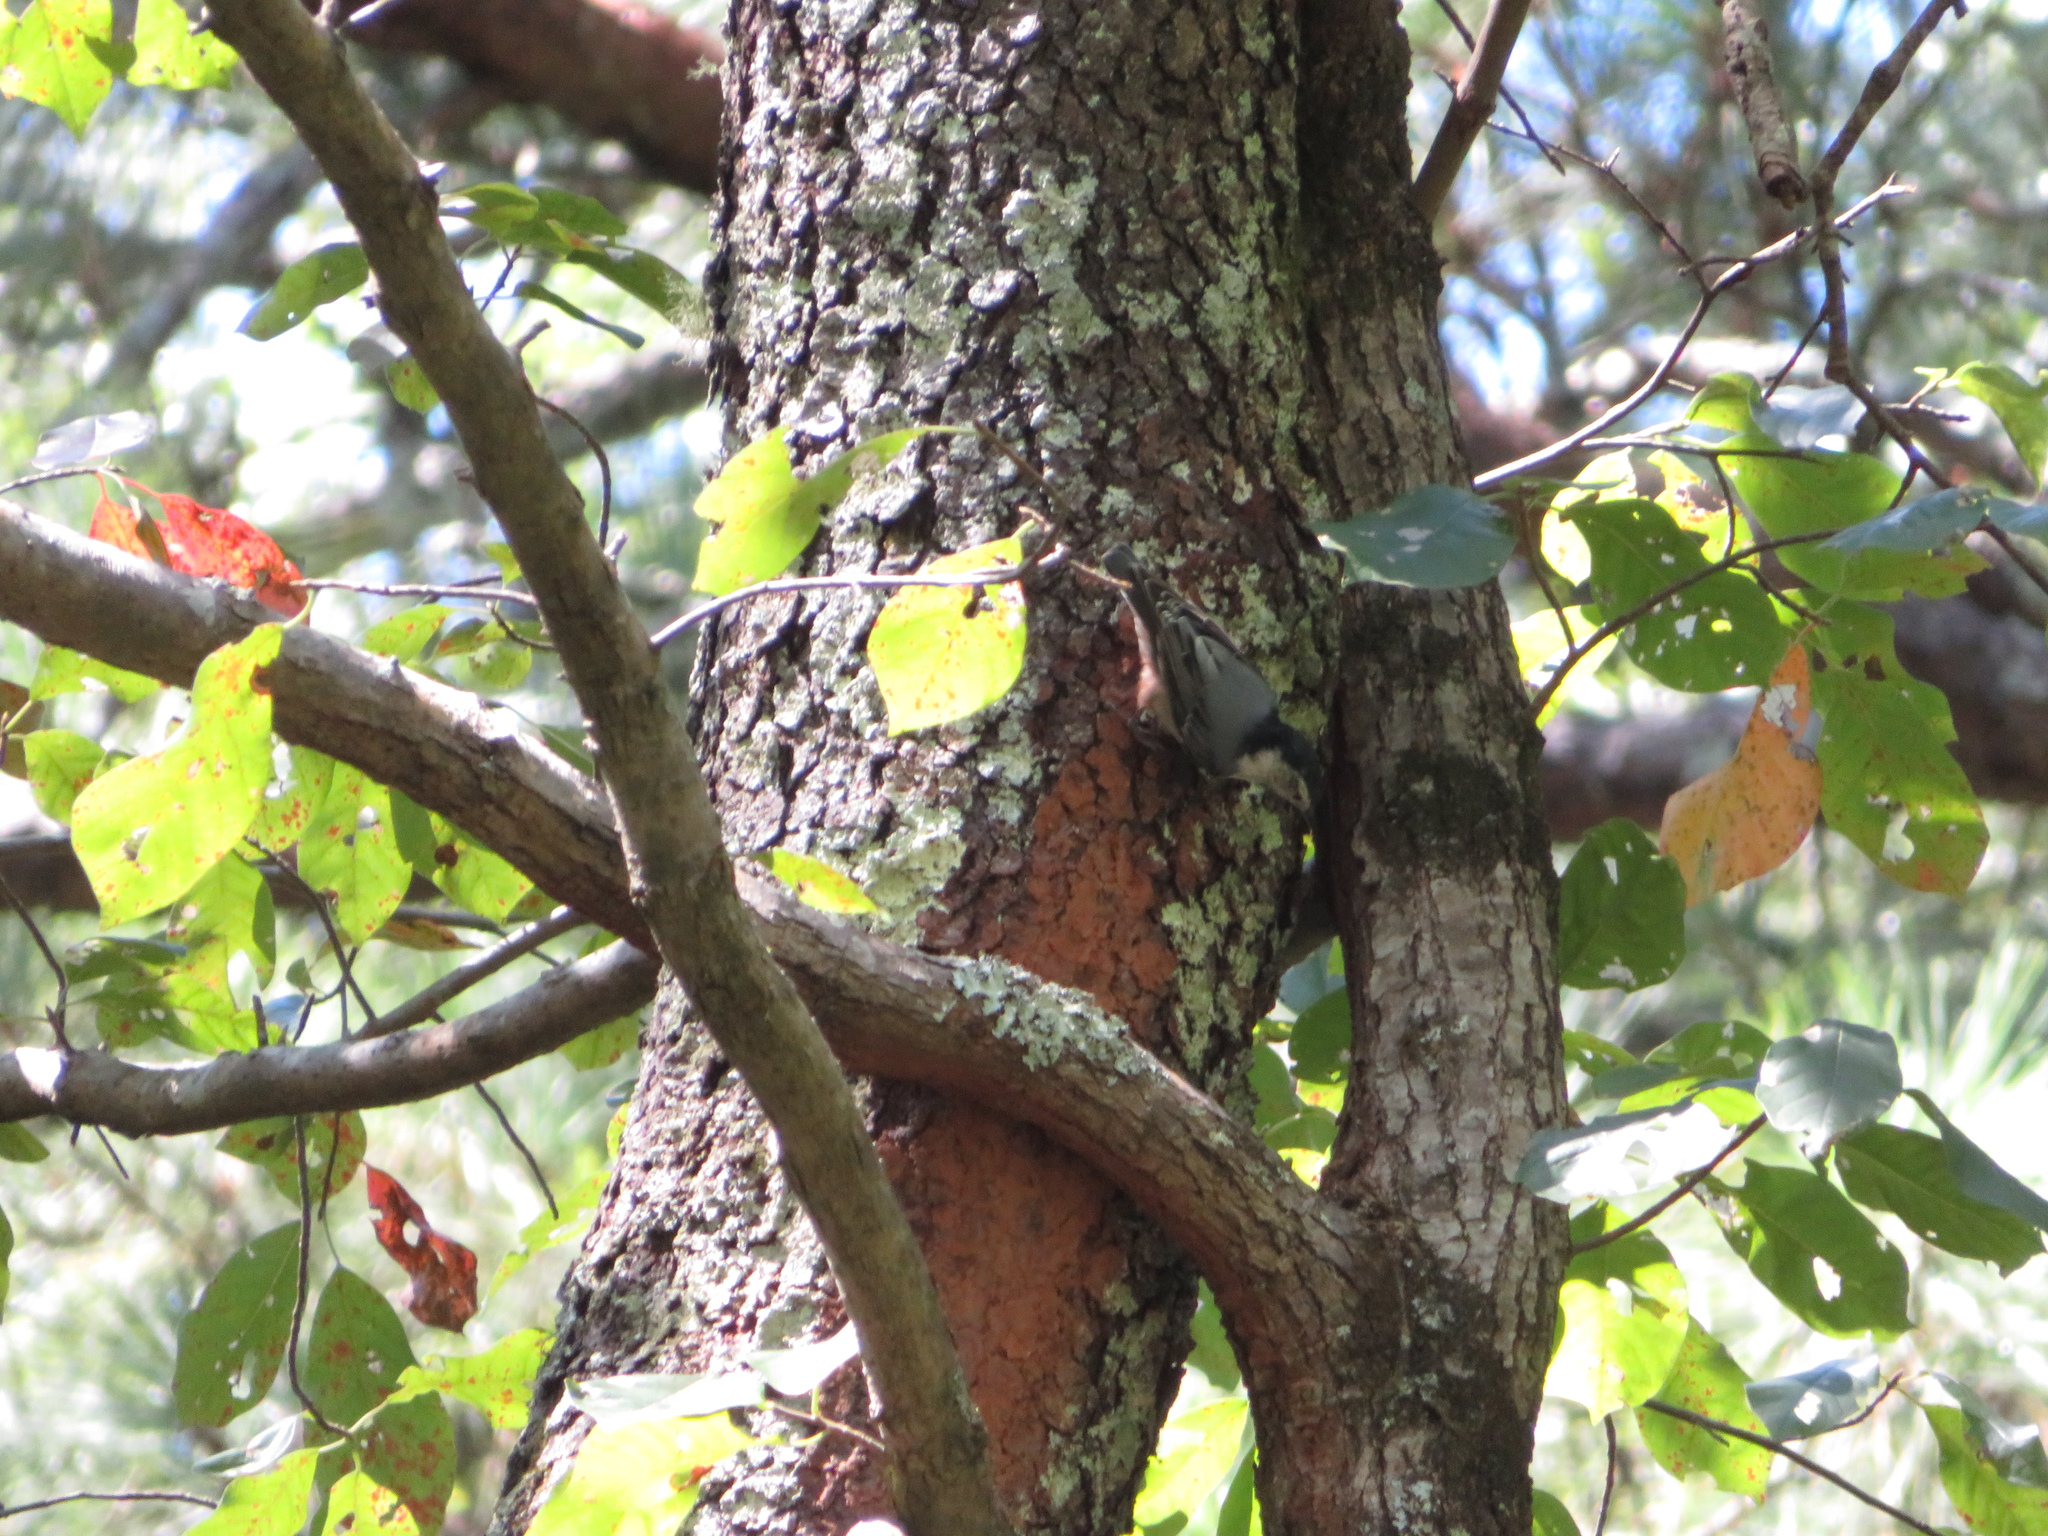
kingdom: Animalia
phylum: Chordata
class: Aves
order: Passeriformes
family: Sittidae
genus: Sitta
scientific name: Sitta carolinensis
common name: White-breasted nuthatch
